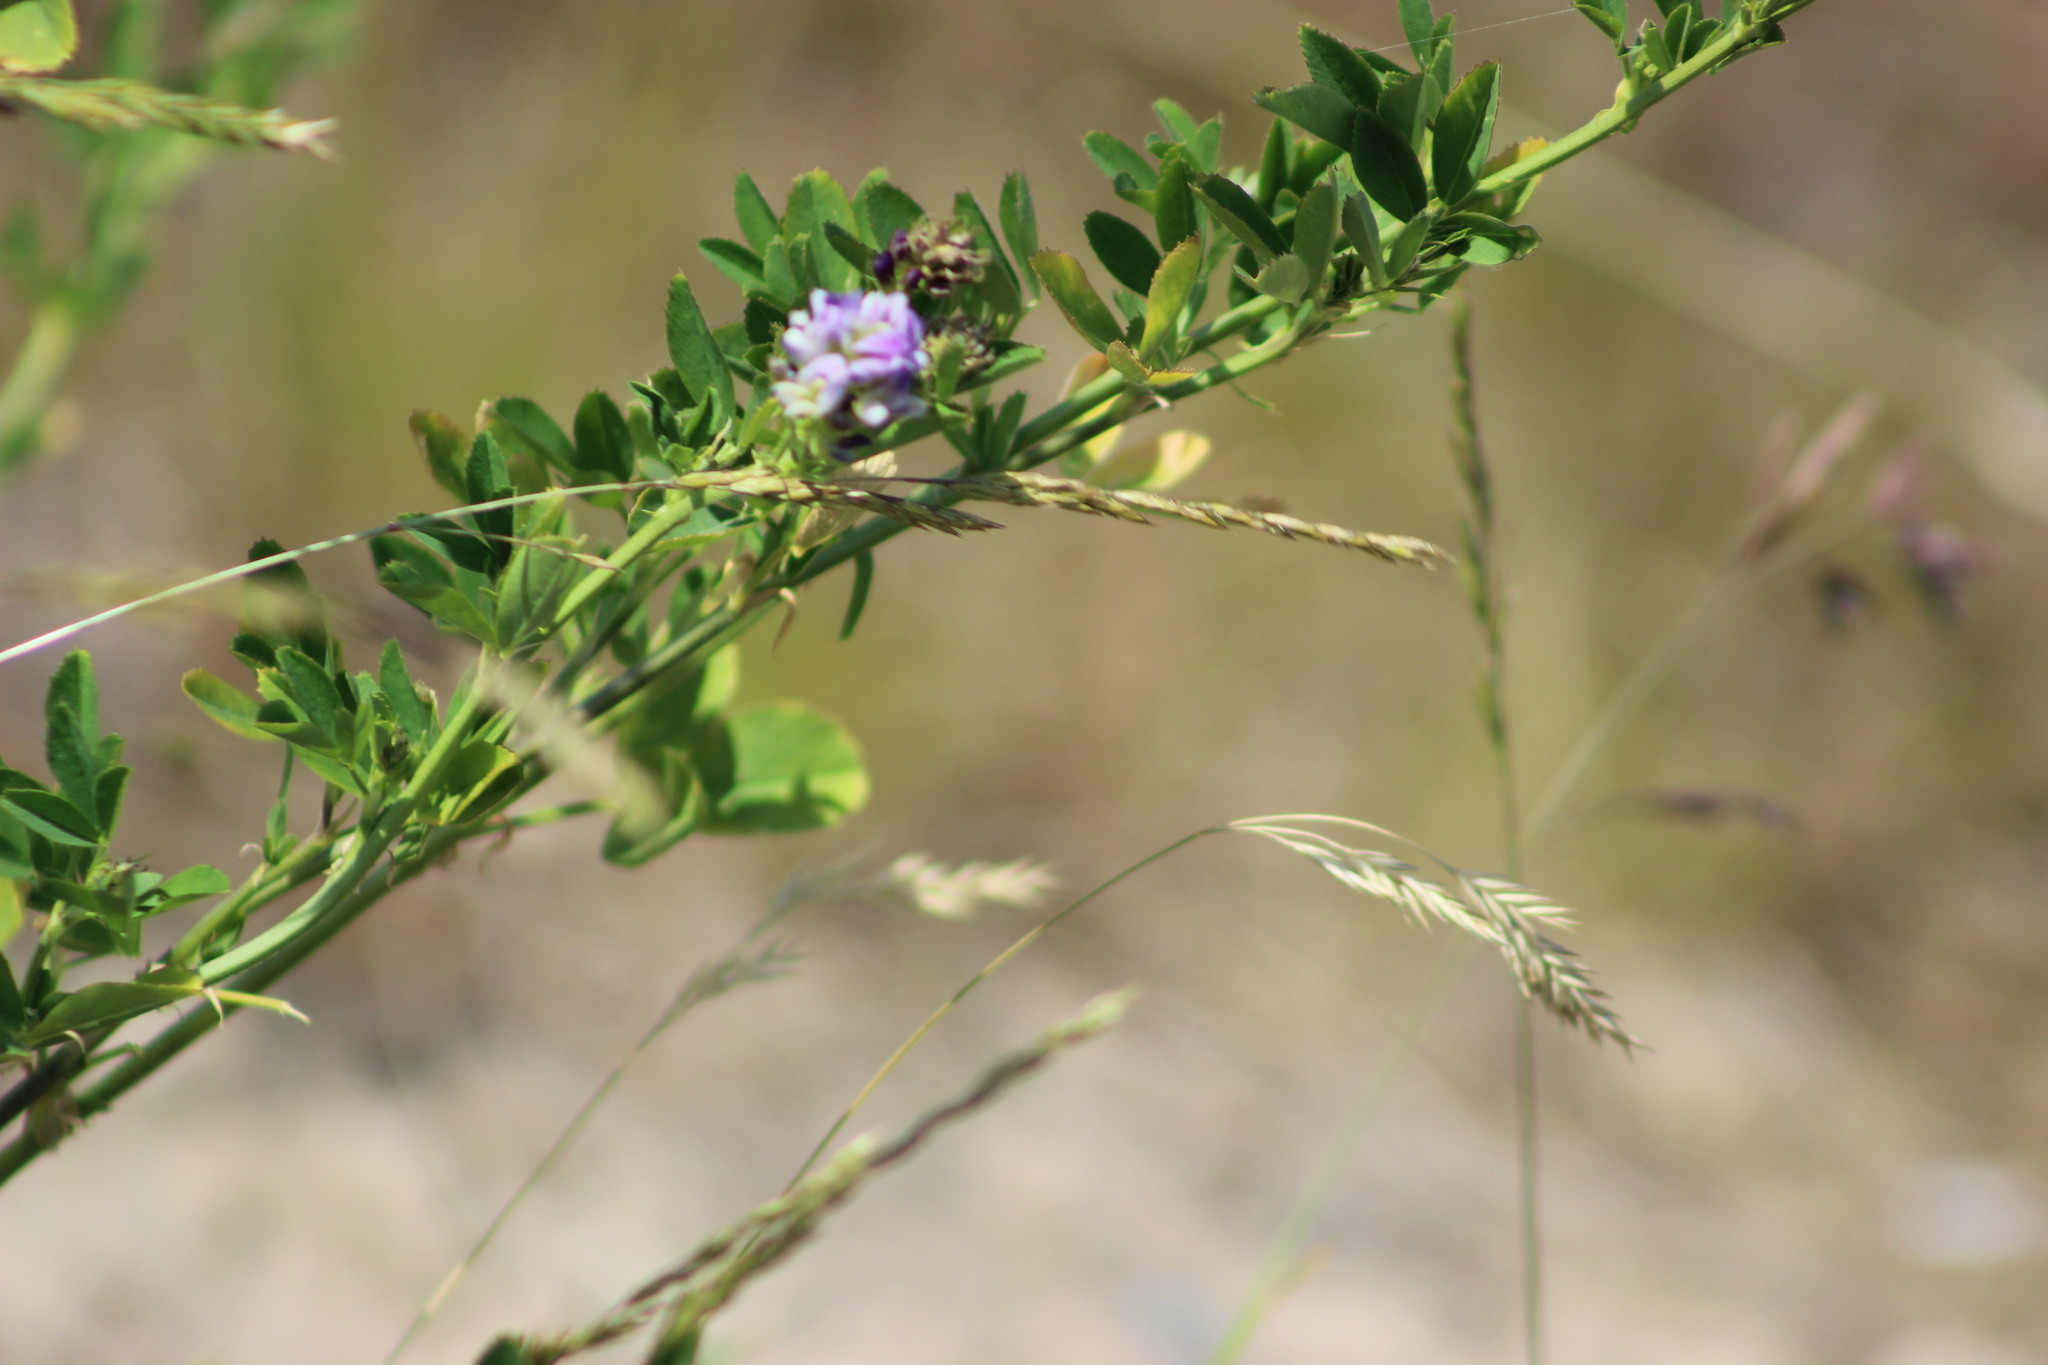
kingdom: Plantae
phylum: Tracheophyta
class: Magnoliopsida
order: Fabales
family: Fabaceae
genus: Medicago
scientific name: Medicago varia
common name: Sand lucerne
